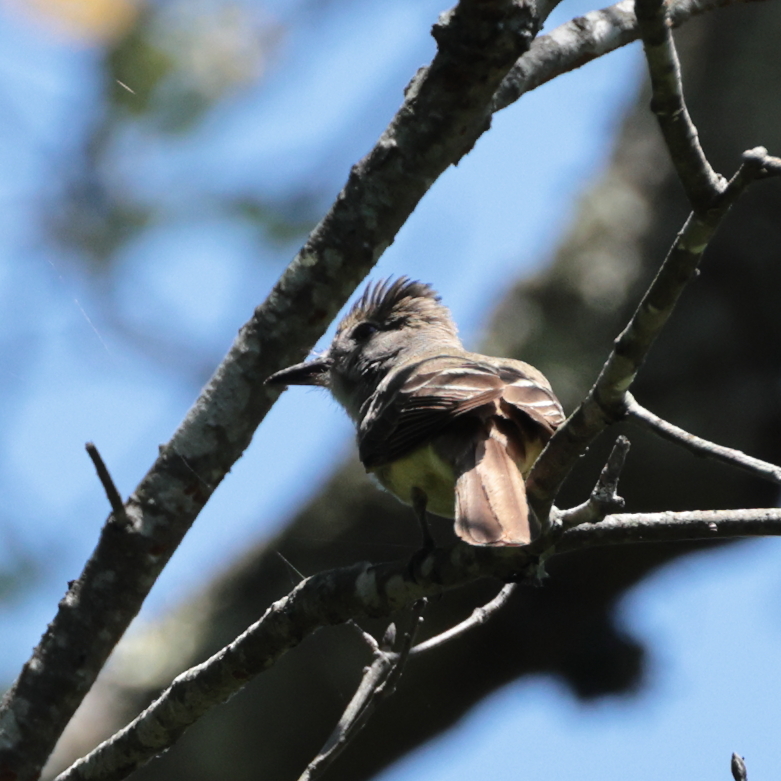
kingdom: Animalia
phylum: Chordata
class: Aves
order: Passeriformes
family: Tyrannidae
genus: Myiarchus
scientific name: Myiarchus crinitus
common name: Great crested flycatcher
